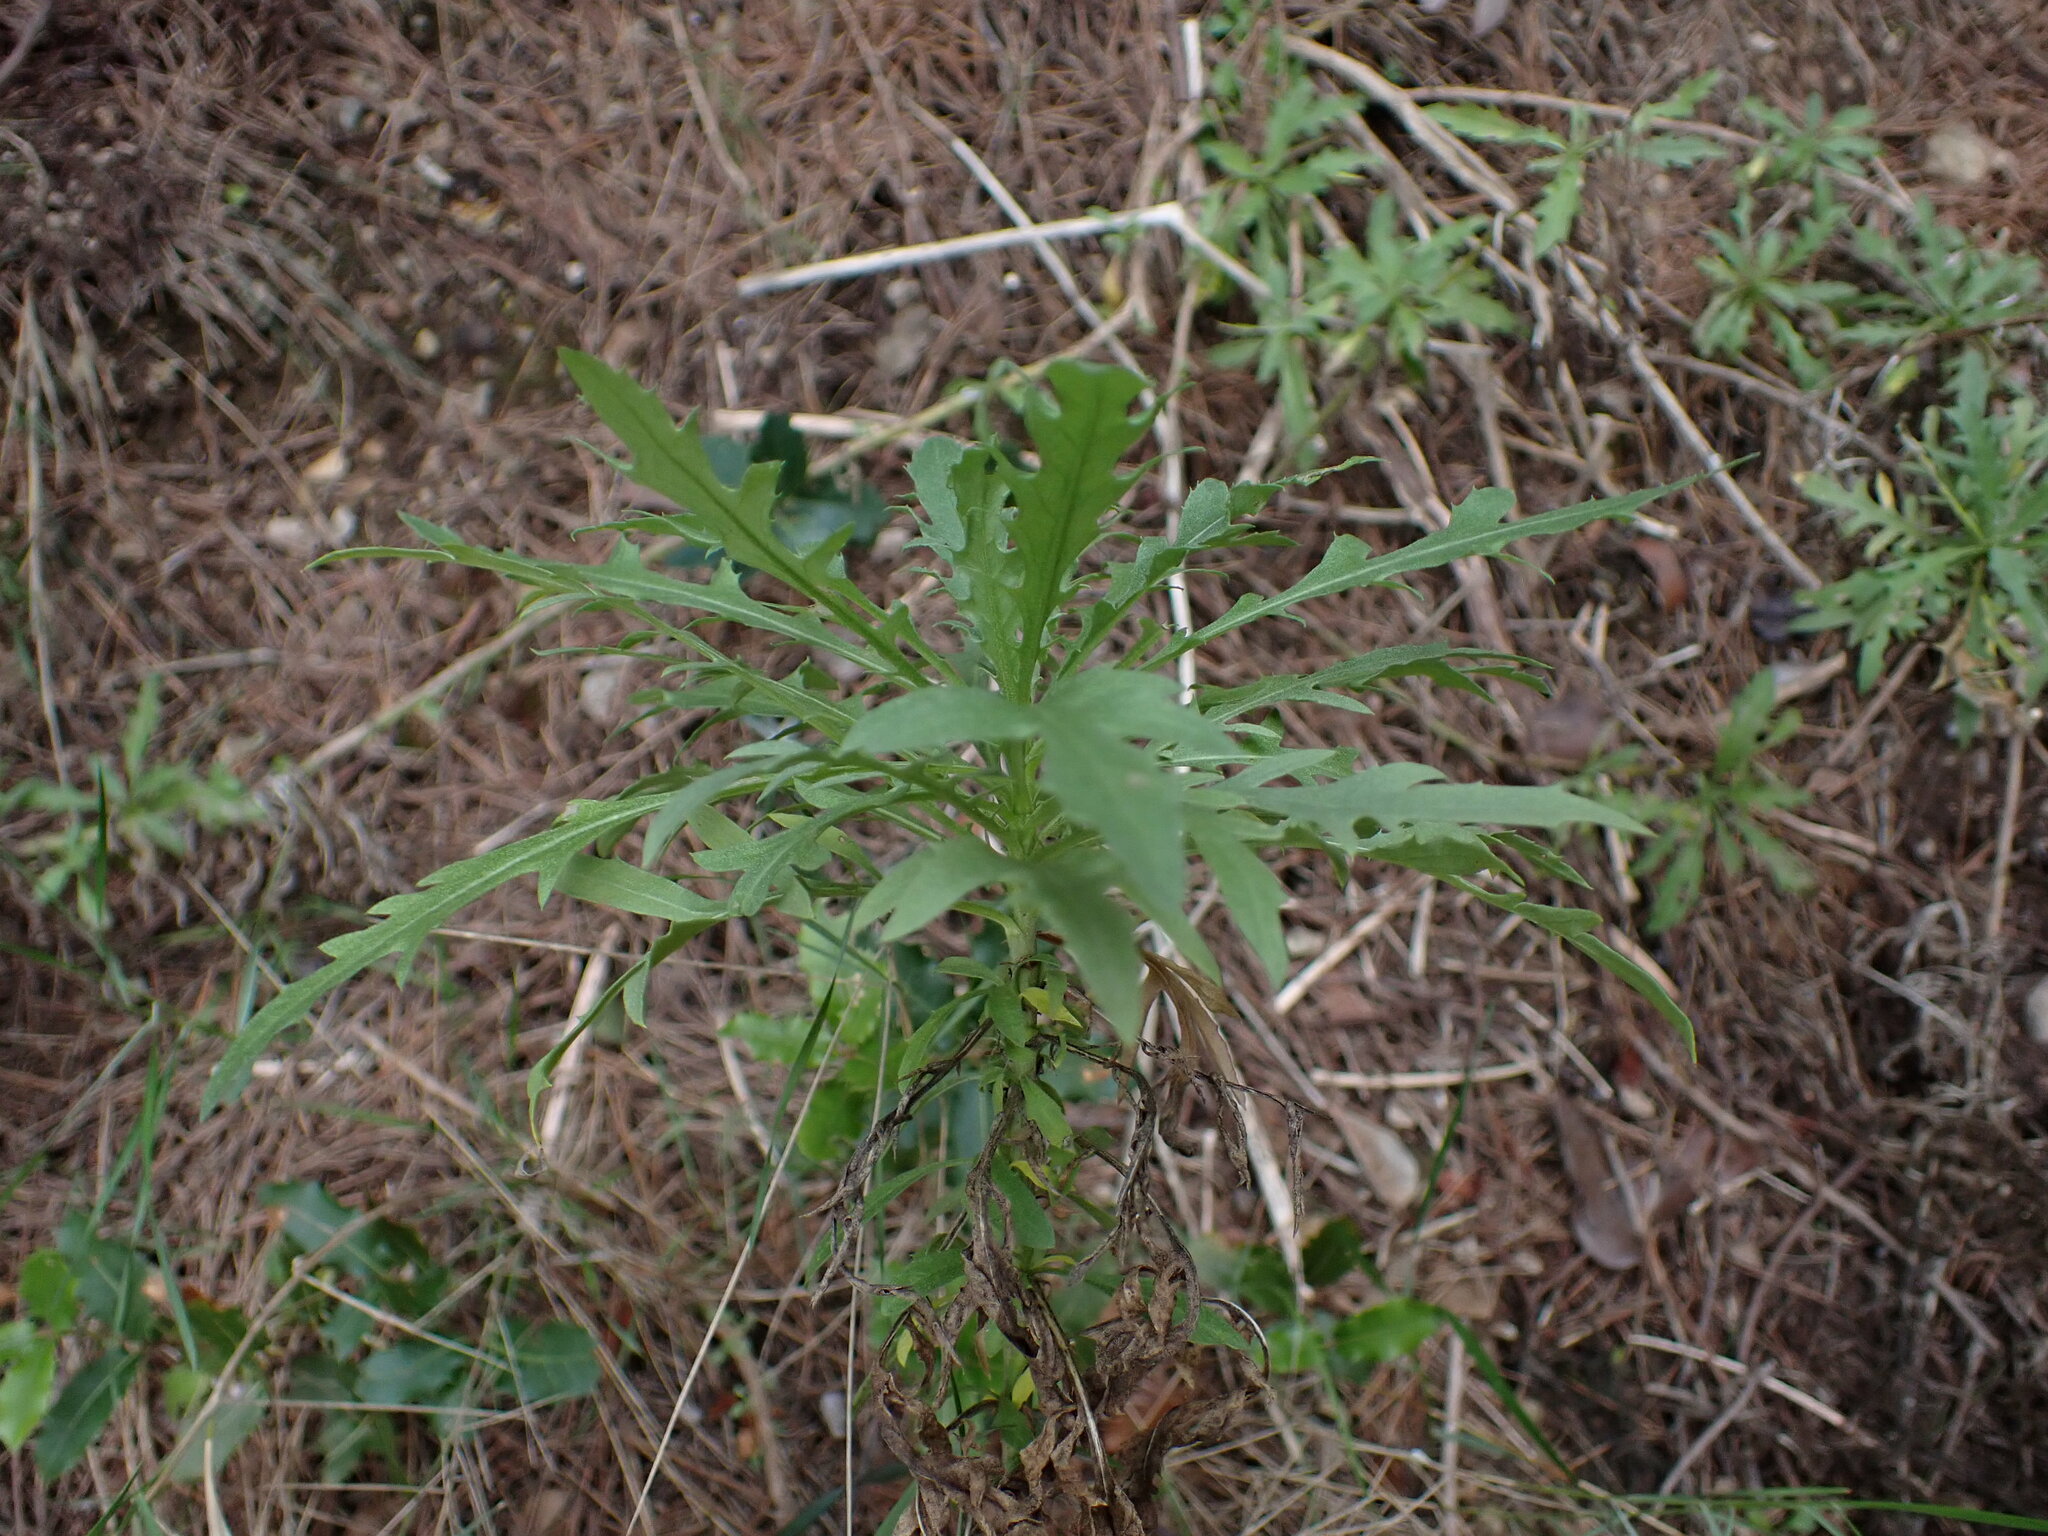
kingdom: Plantae
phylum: Tracheophyta
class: Magnoliopsida
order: Asterales
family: Asteraceae
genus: Cheirolophus
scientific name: Cheirolophus intybaceus
